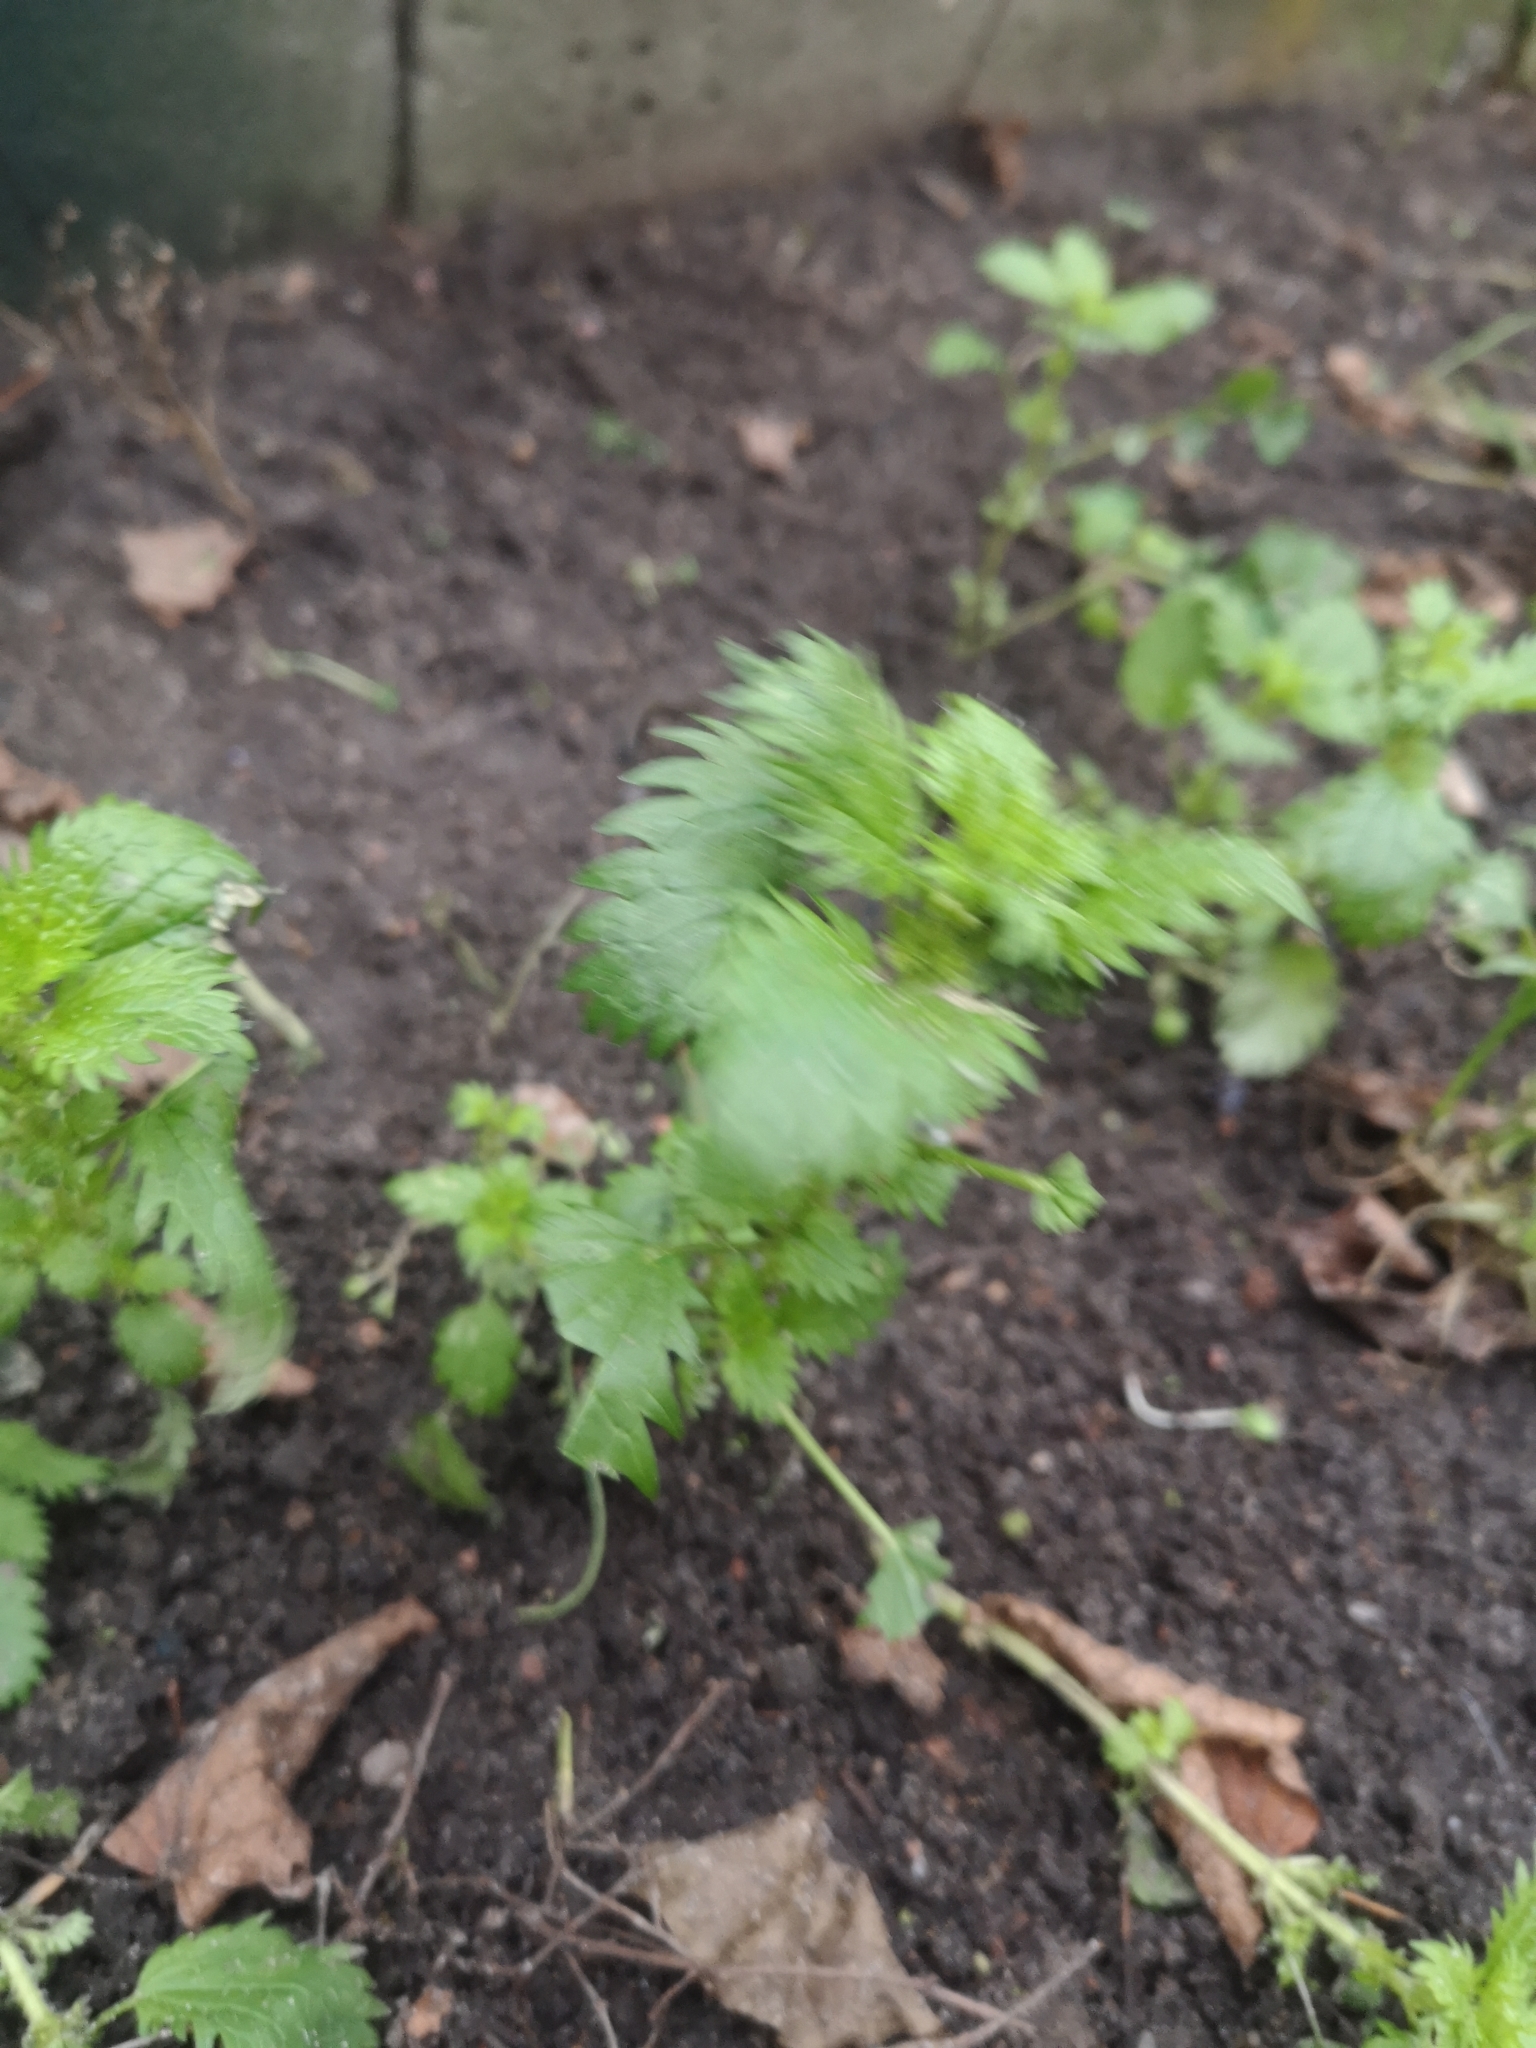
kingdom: Plantae
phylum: Tracheophyta
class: Magnoliopsida
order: Rosales
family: Urticaceae
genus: Urtica
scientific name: Urtica urens
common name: Dwarf nettle
